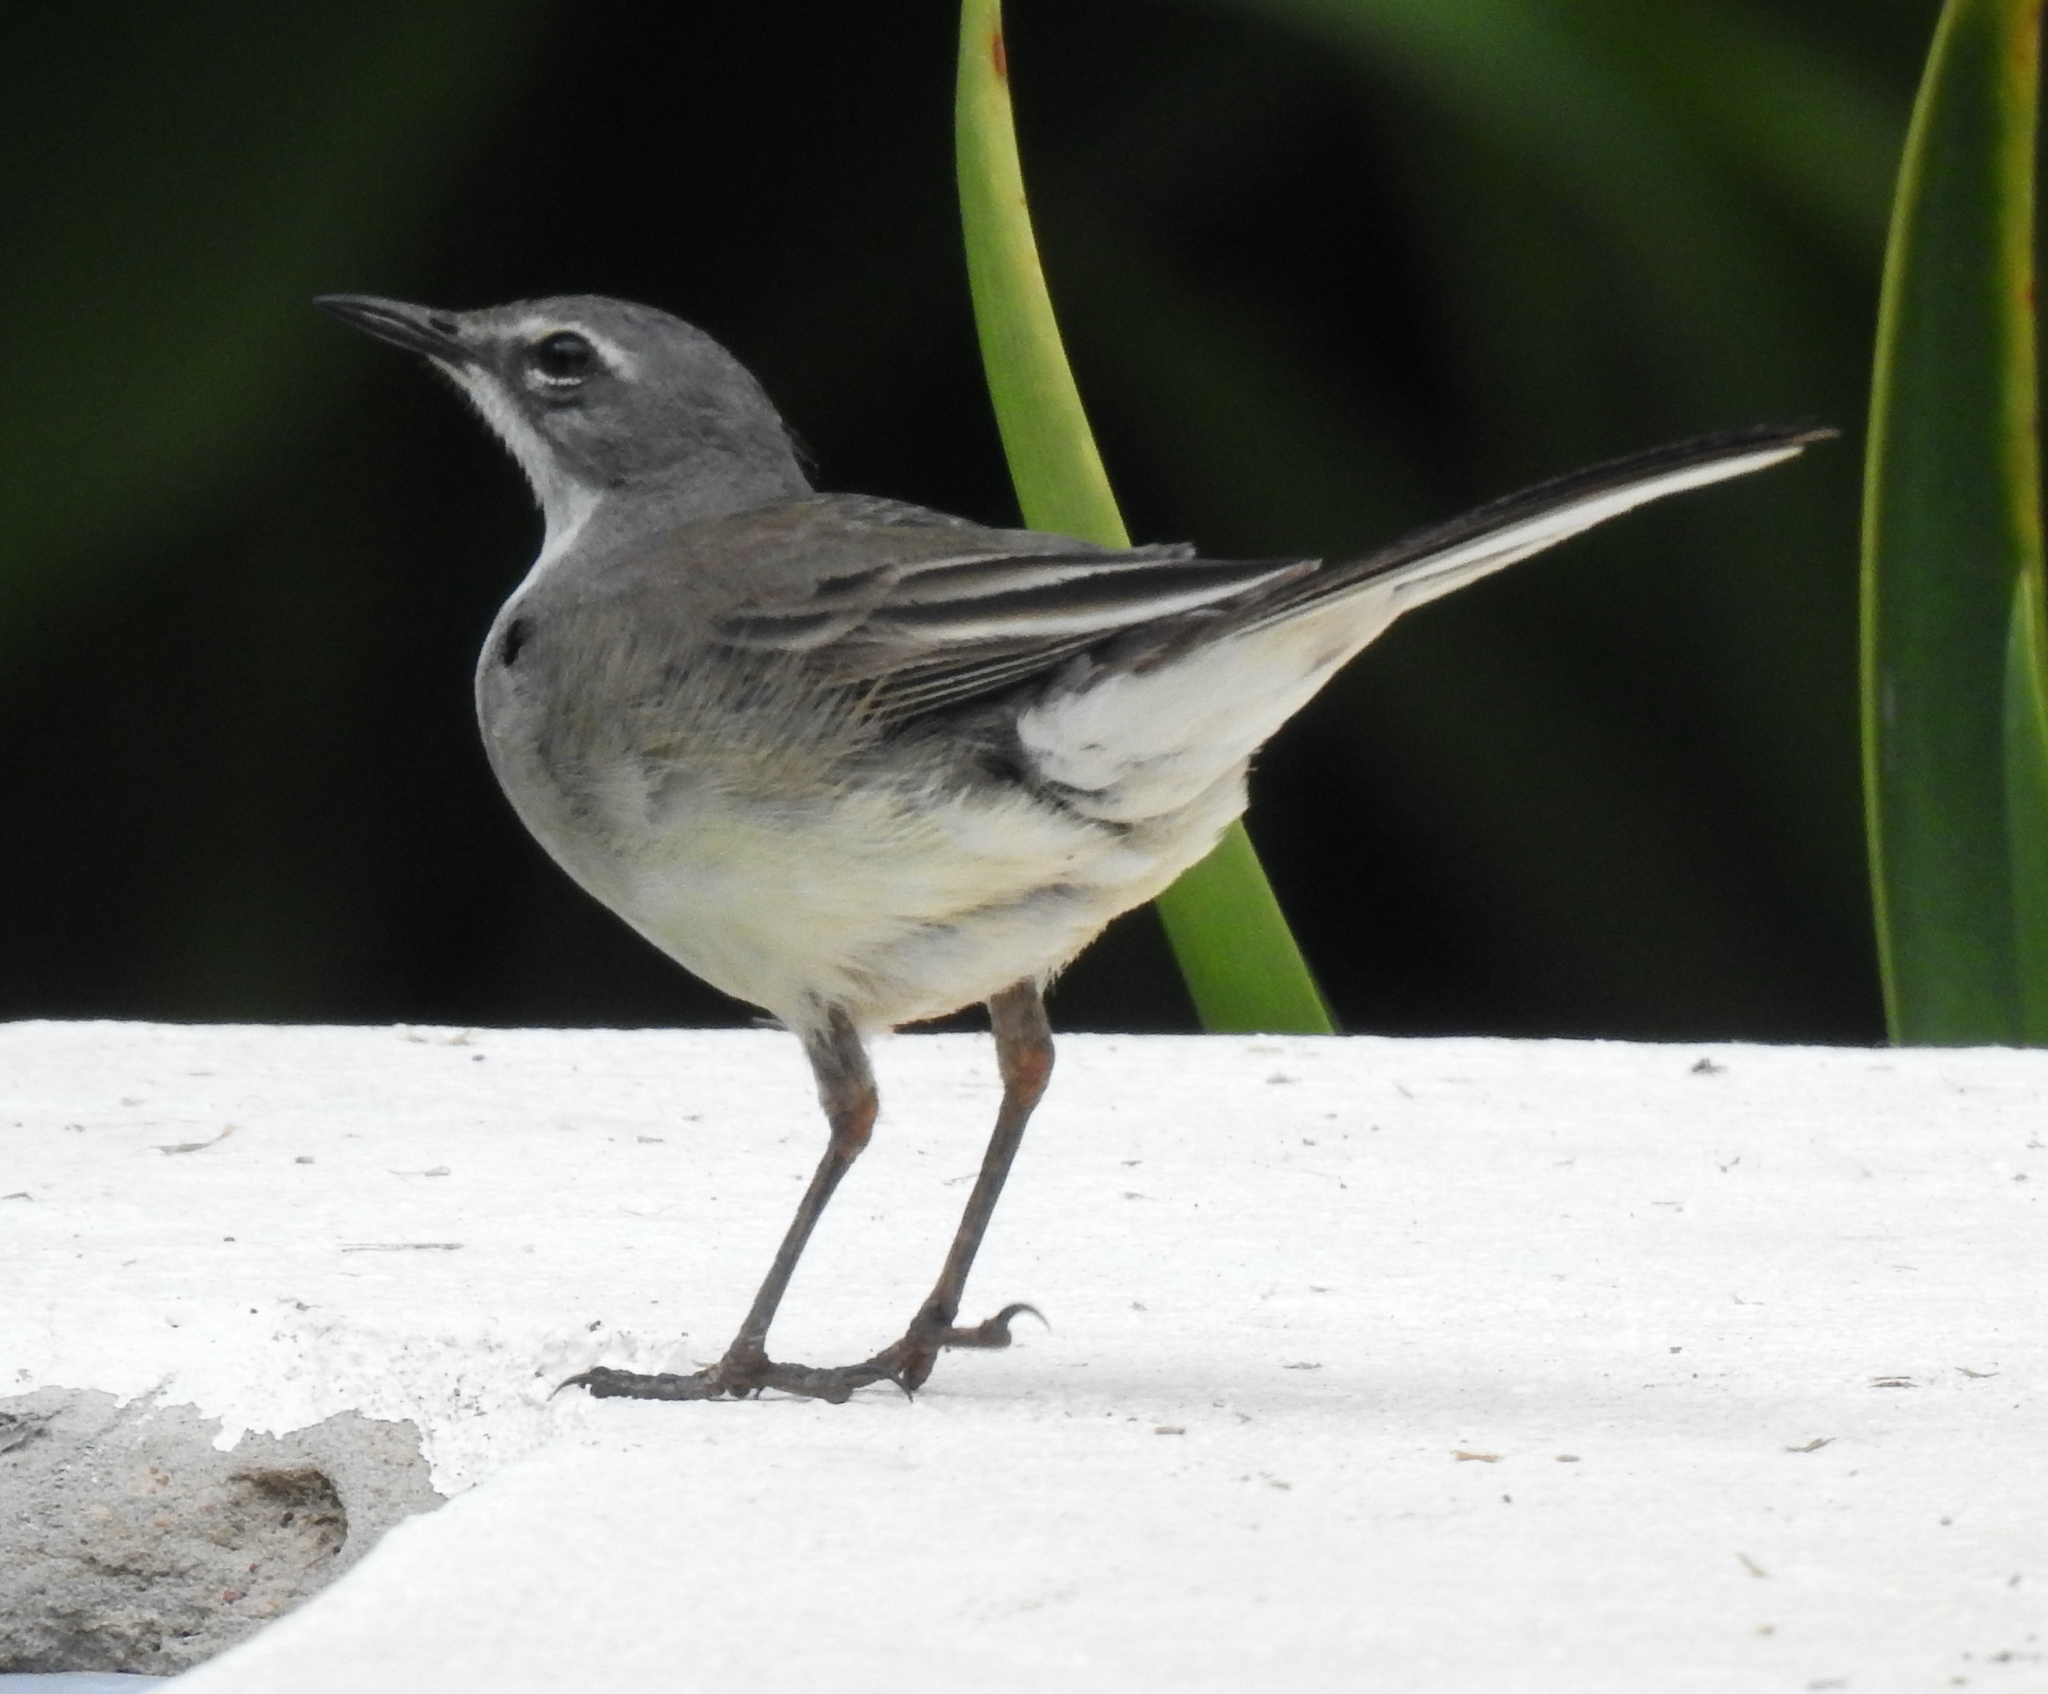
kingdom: Animalia
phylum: Chordata
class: Aves
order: Passeriformes
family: Motacillidae
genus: Motacilla
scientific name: Motacilla capensis
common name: Cape wagtail
